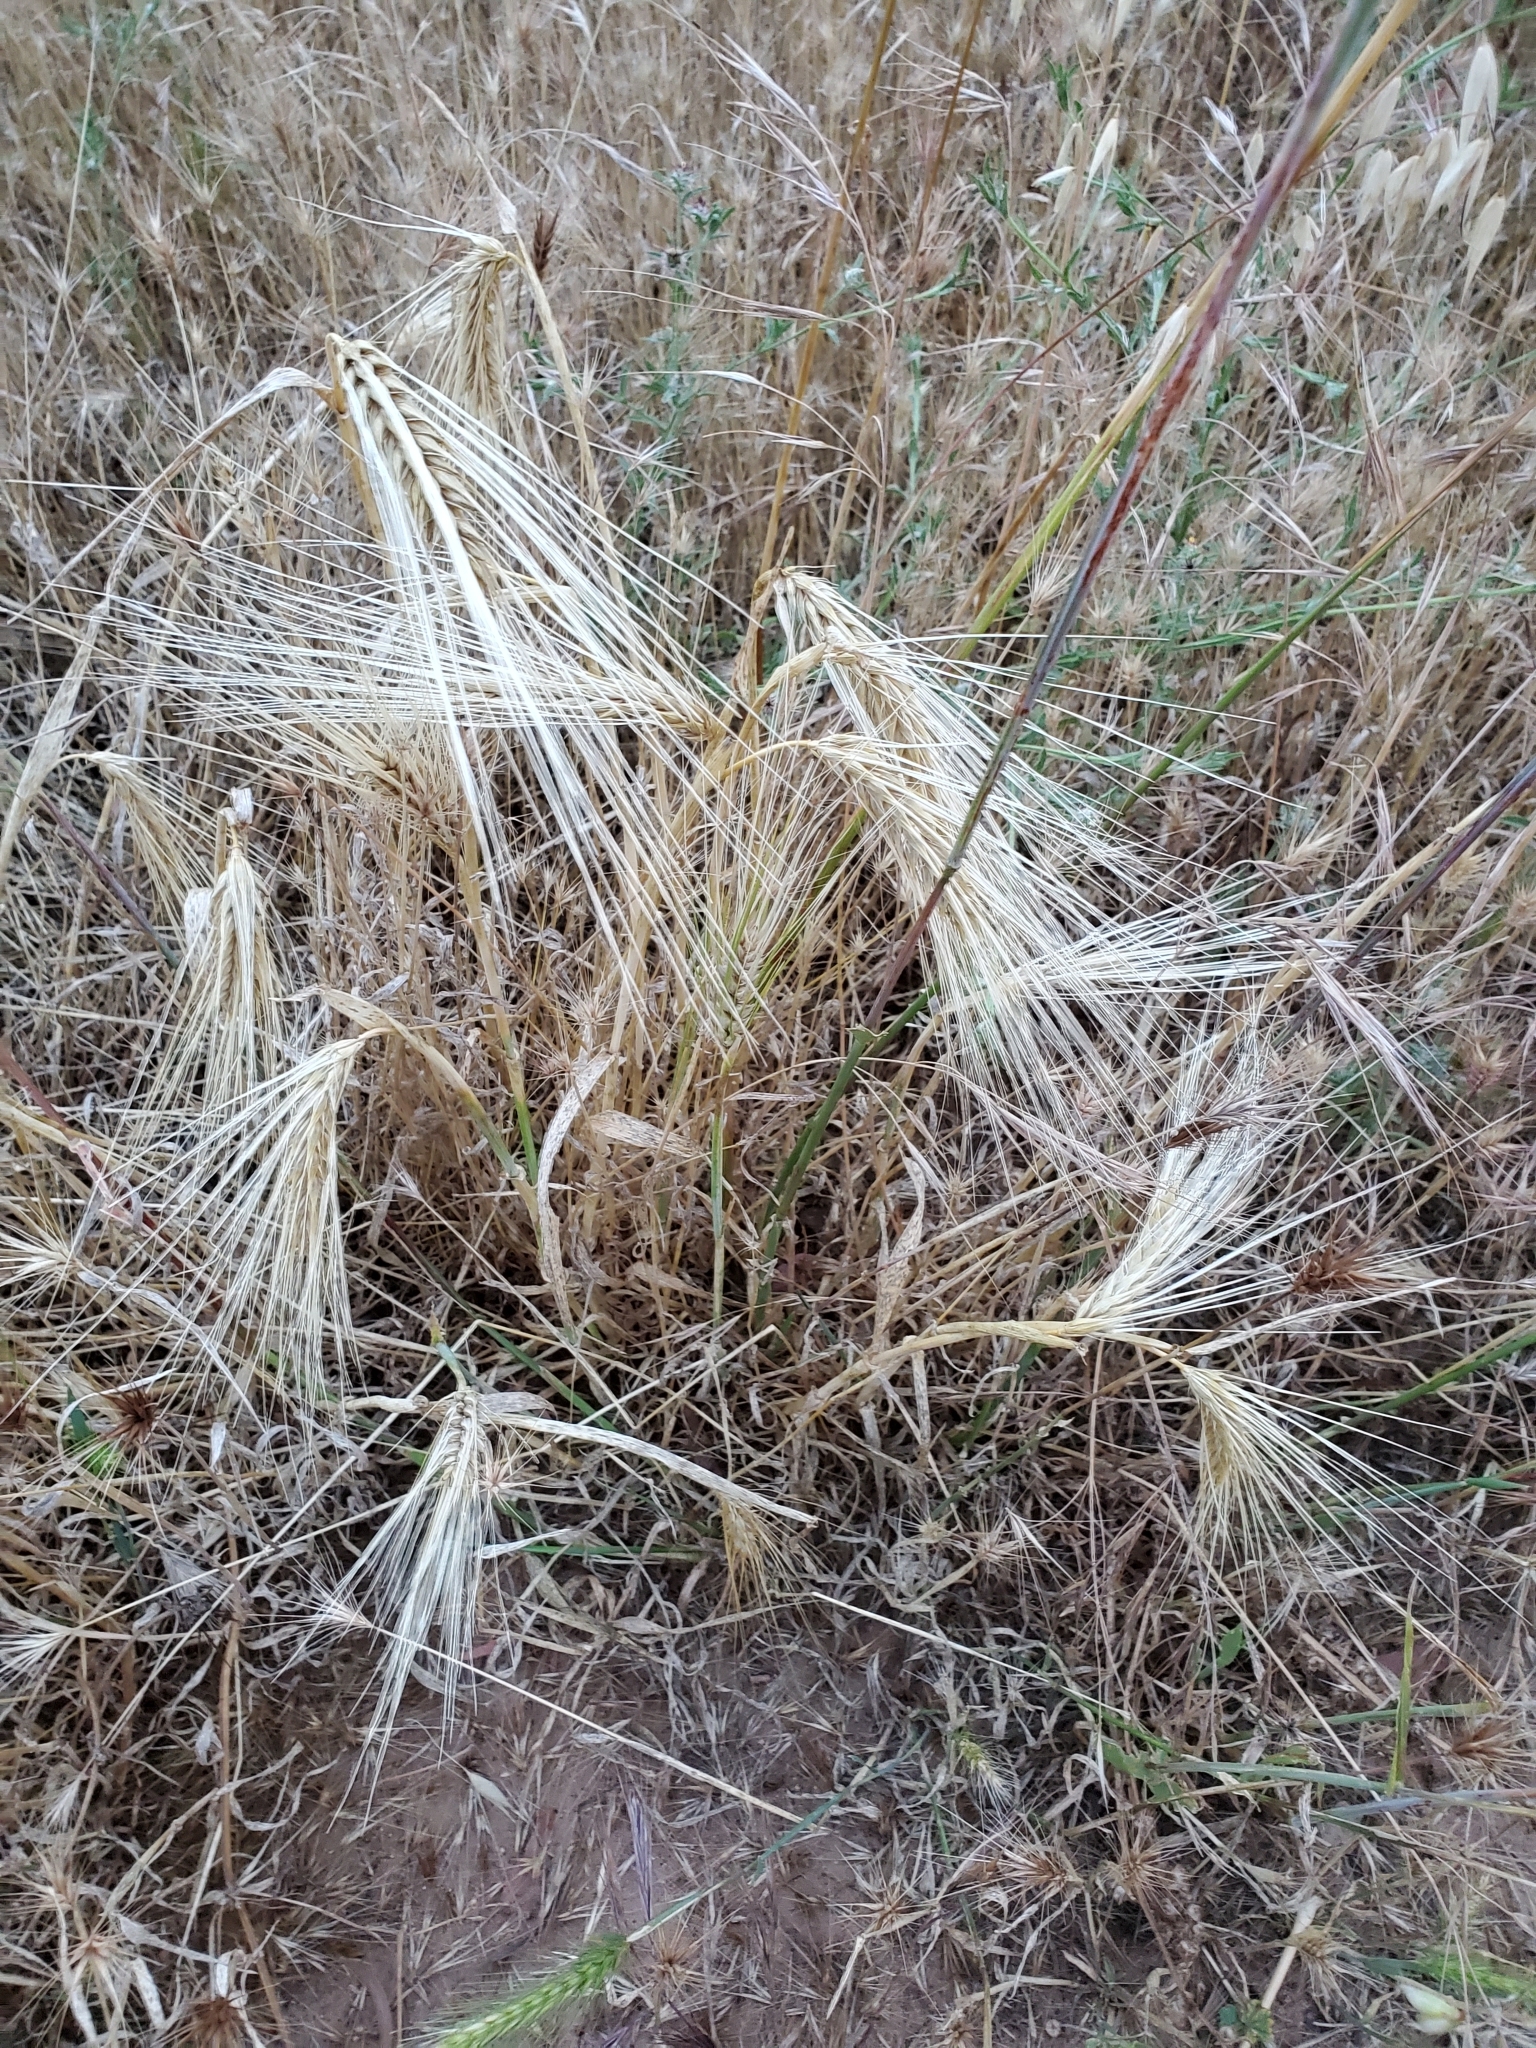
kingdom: Plantae
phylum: Tracheophyta
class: Liliopsida
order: Poales
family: Poaceae
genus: Hordeum
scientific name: Hordeum vulgare
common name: Common barley
